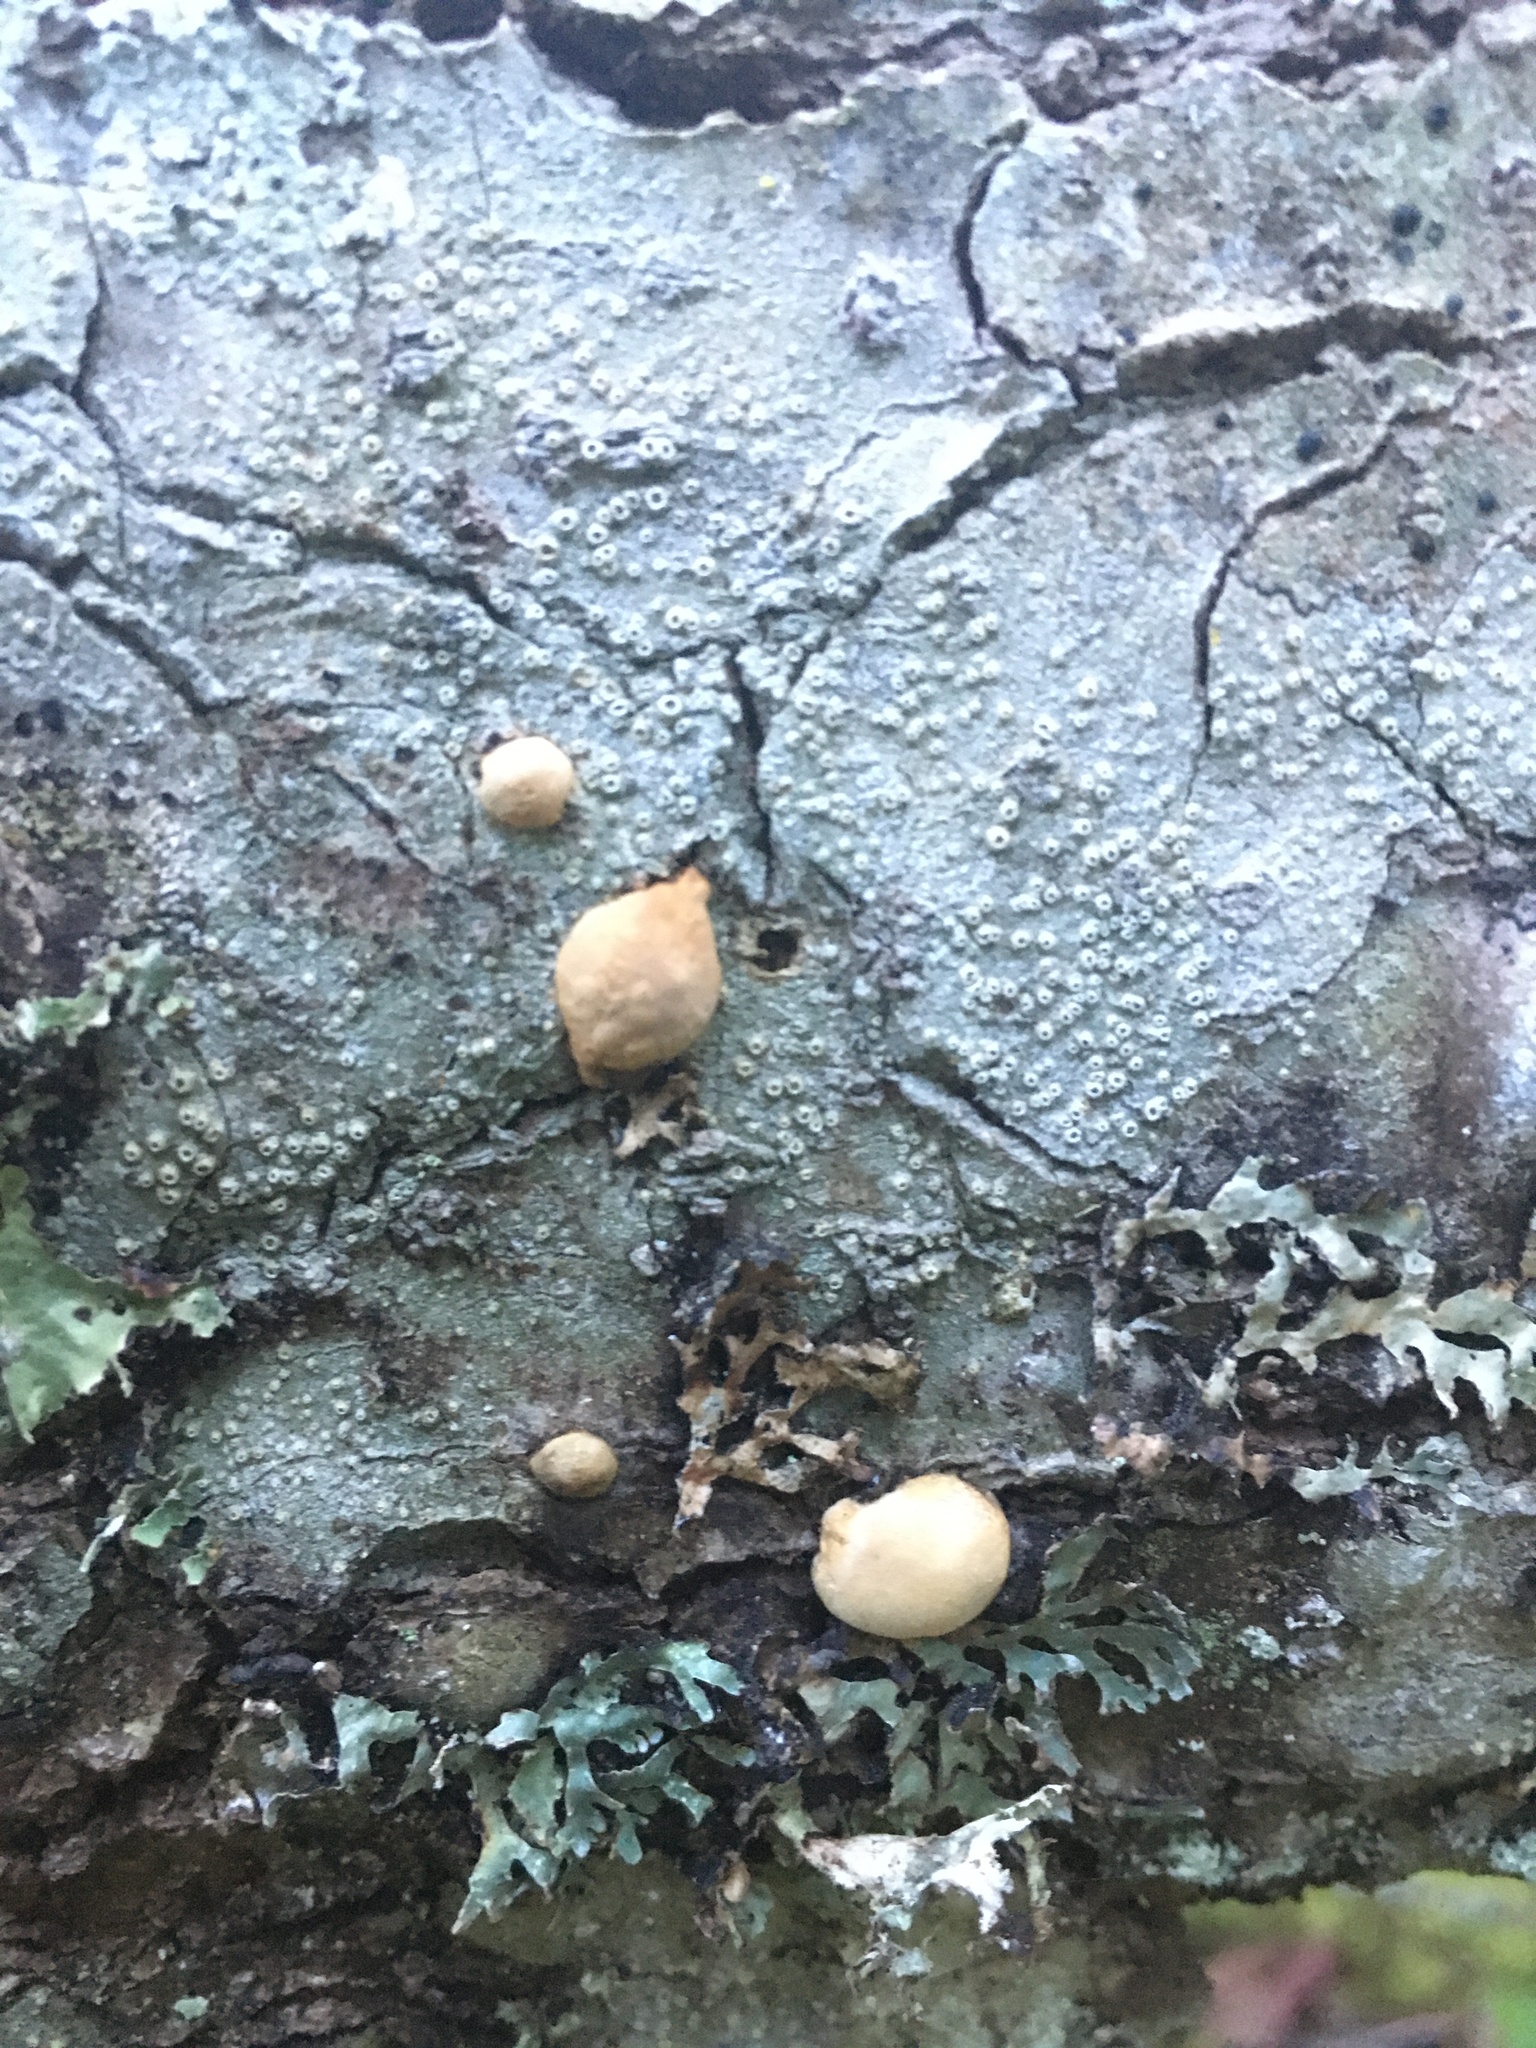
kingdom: Fungi
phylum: Basidiomycota
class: Agaricomycetes
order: Polyporales
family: Polyporaceae
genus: Cryptoporus
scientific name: Cryptoporus volvatus
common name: Veiled polypore
